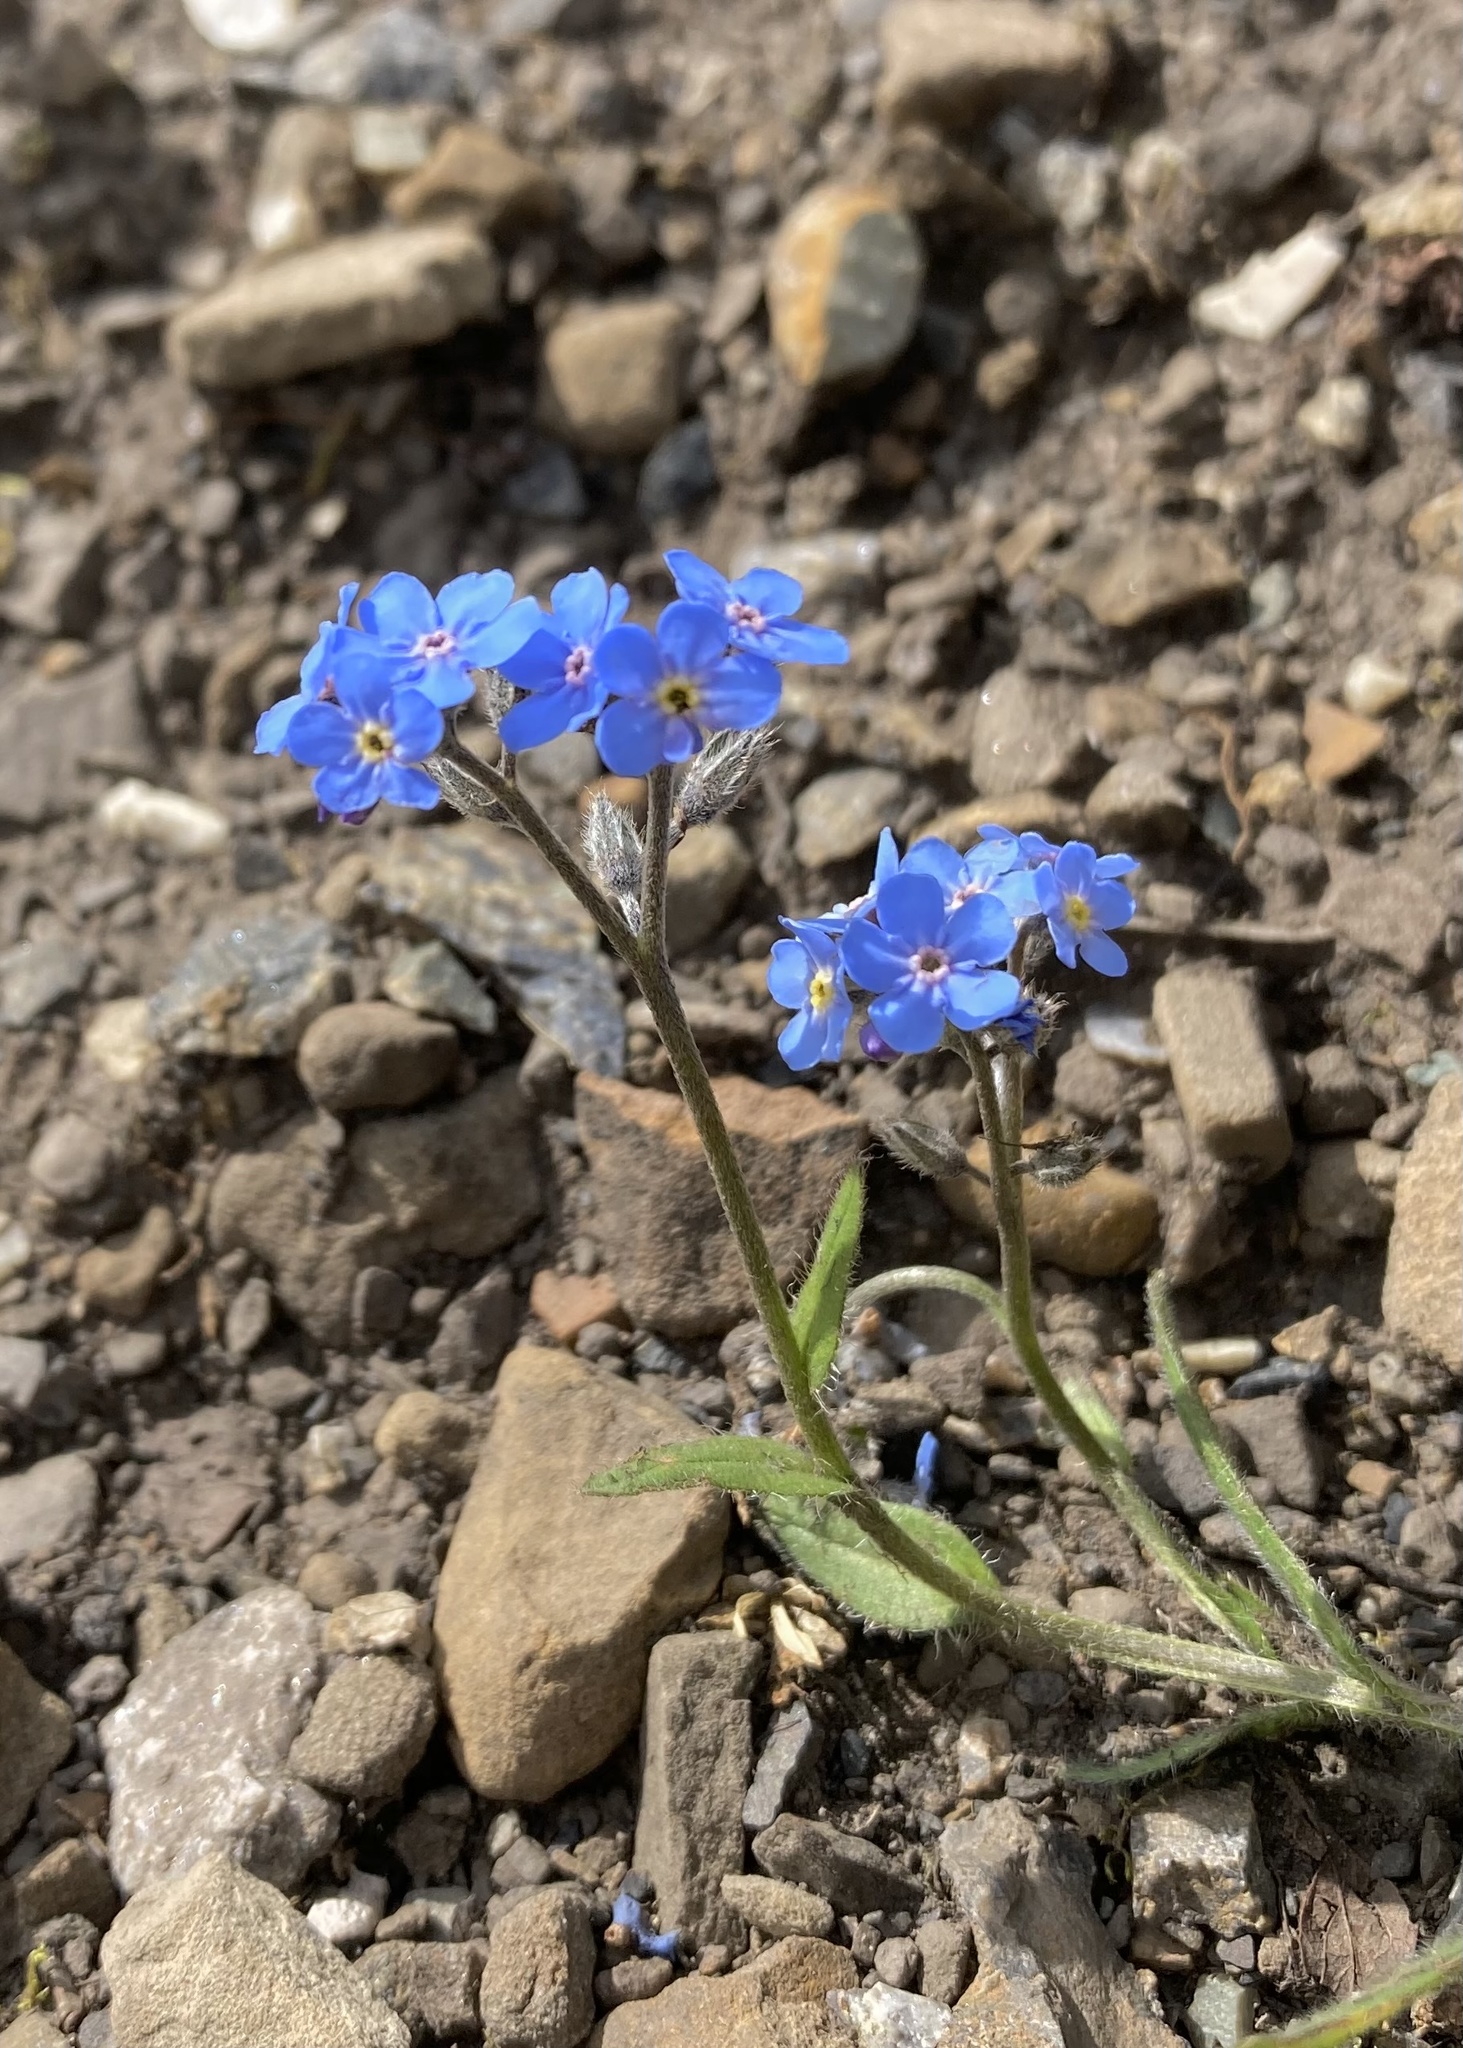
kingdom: Plantae
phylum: Tracheophyta
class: Magnoliopsida
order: Boraginales
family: Boraginaceae
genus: Myosotis
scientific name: Myosotis asiatica
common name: Asian forget-me-not
